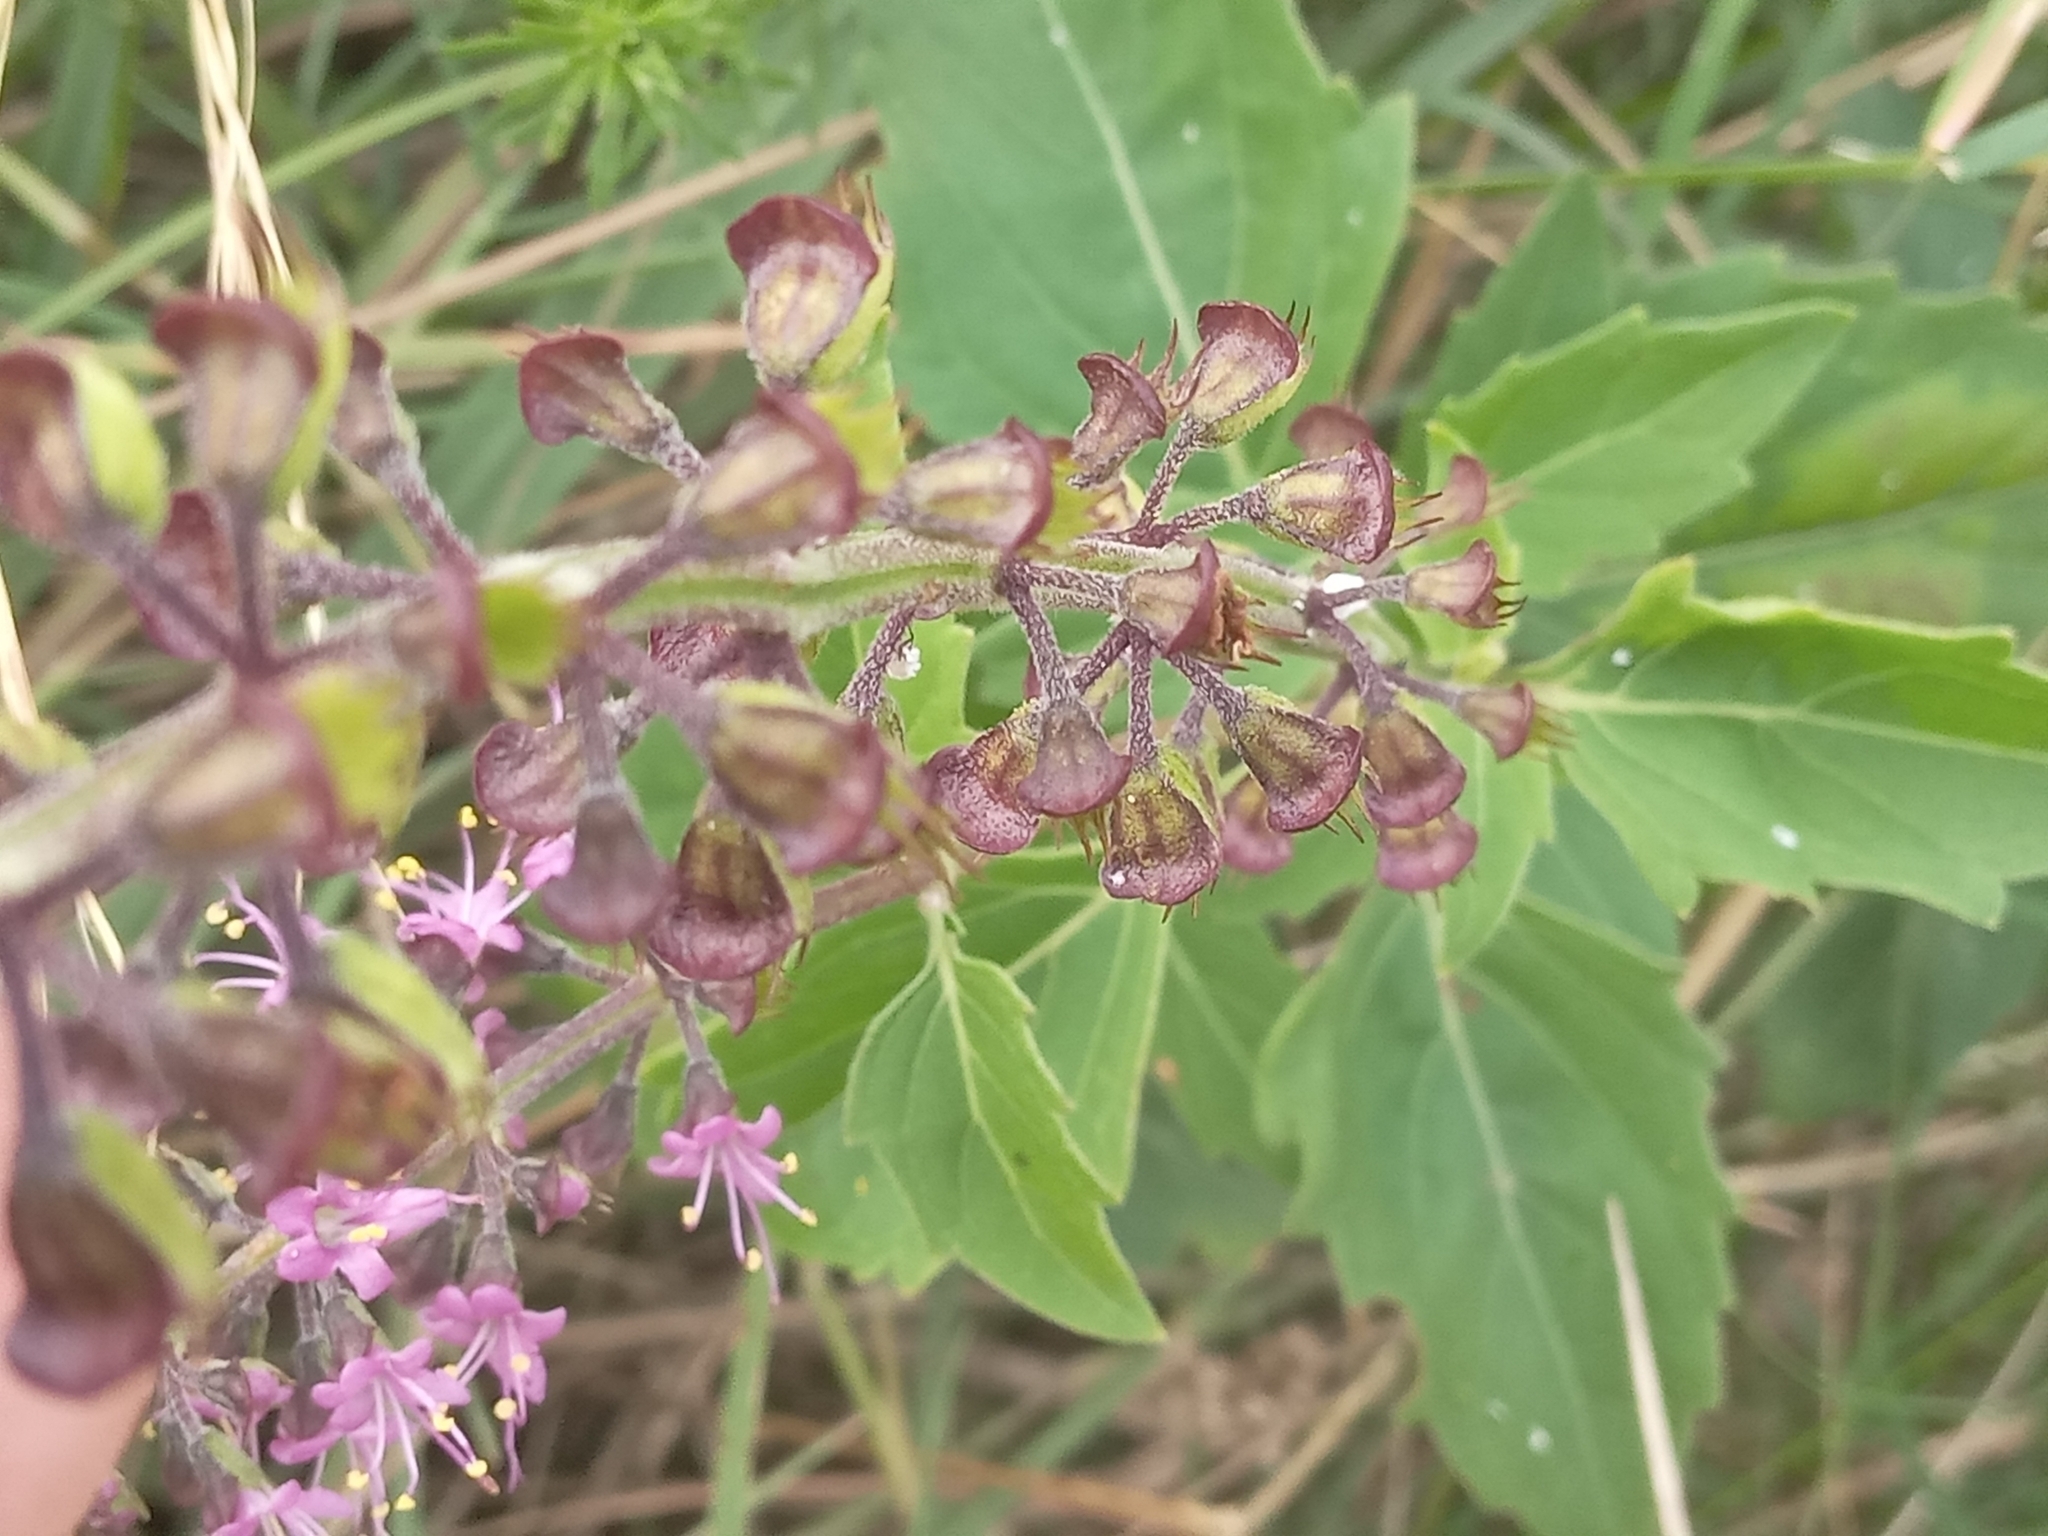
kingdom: Plantae
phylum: Tracheophyta
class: Magnoliopsida
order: Lamiales
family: Lamiaceae
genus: Ocimum
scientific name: Ocimum carnosum
